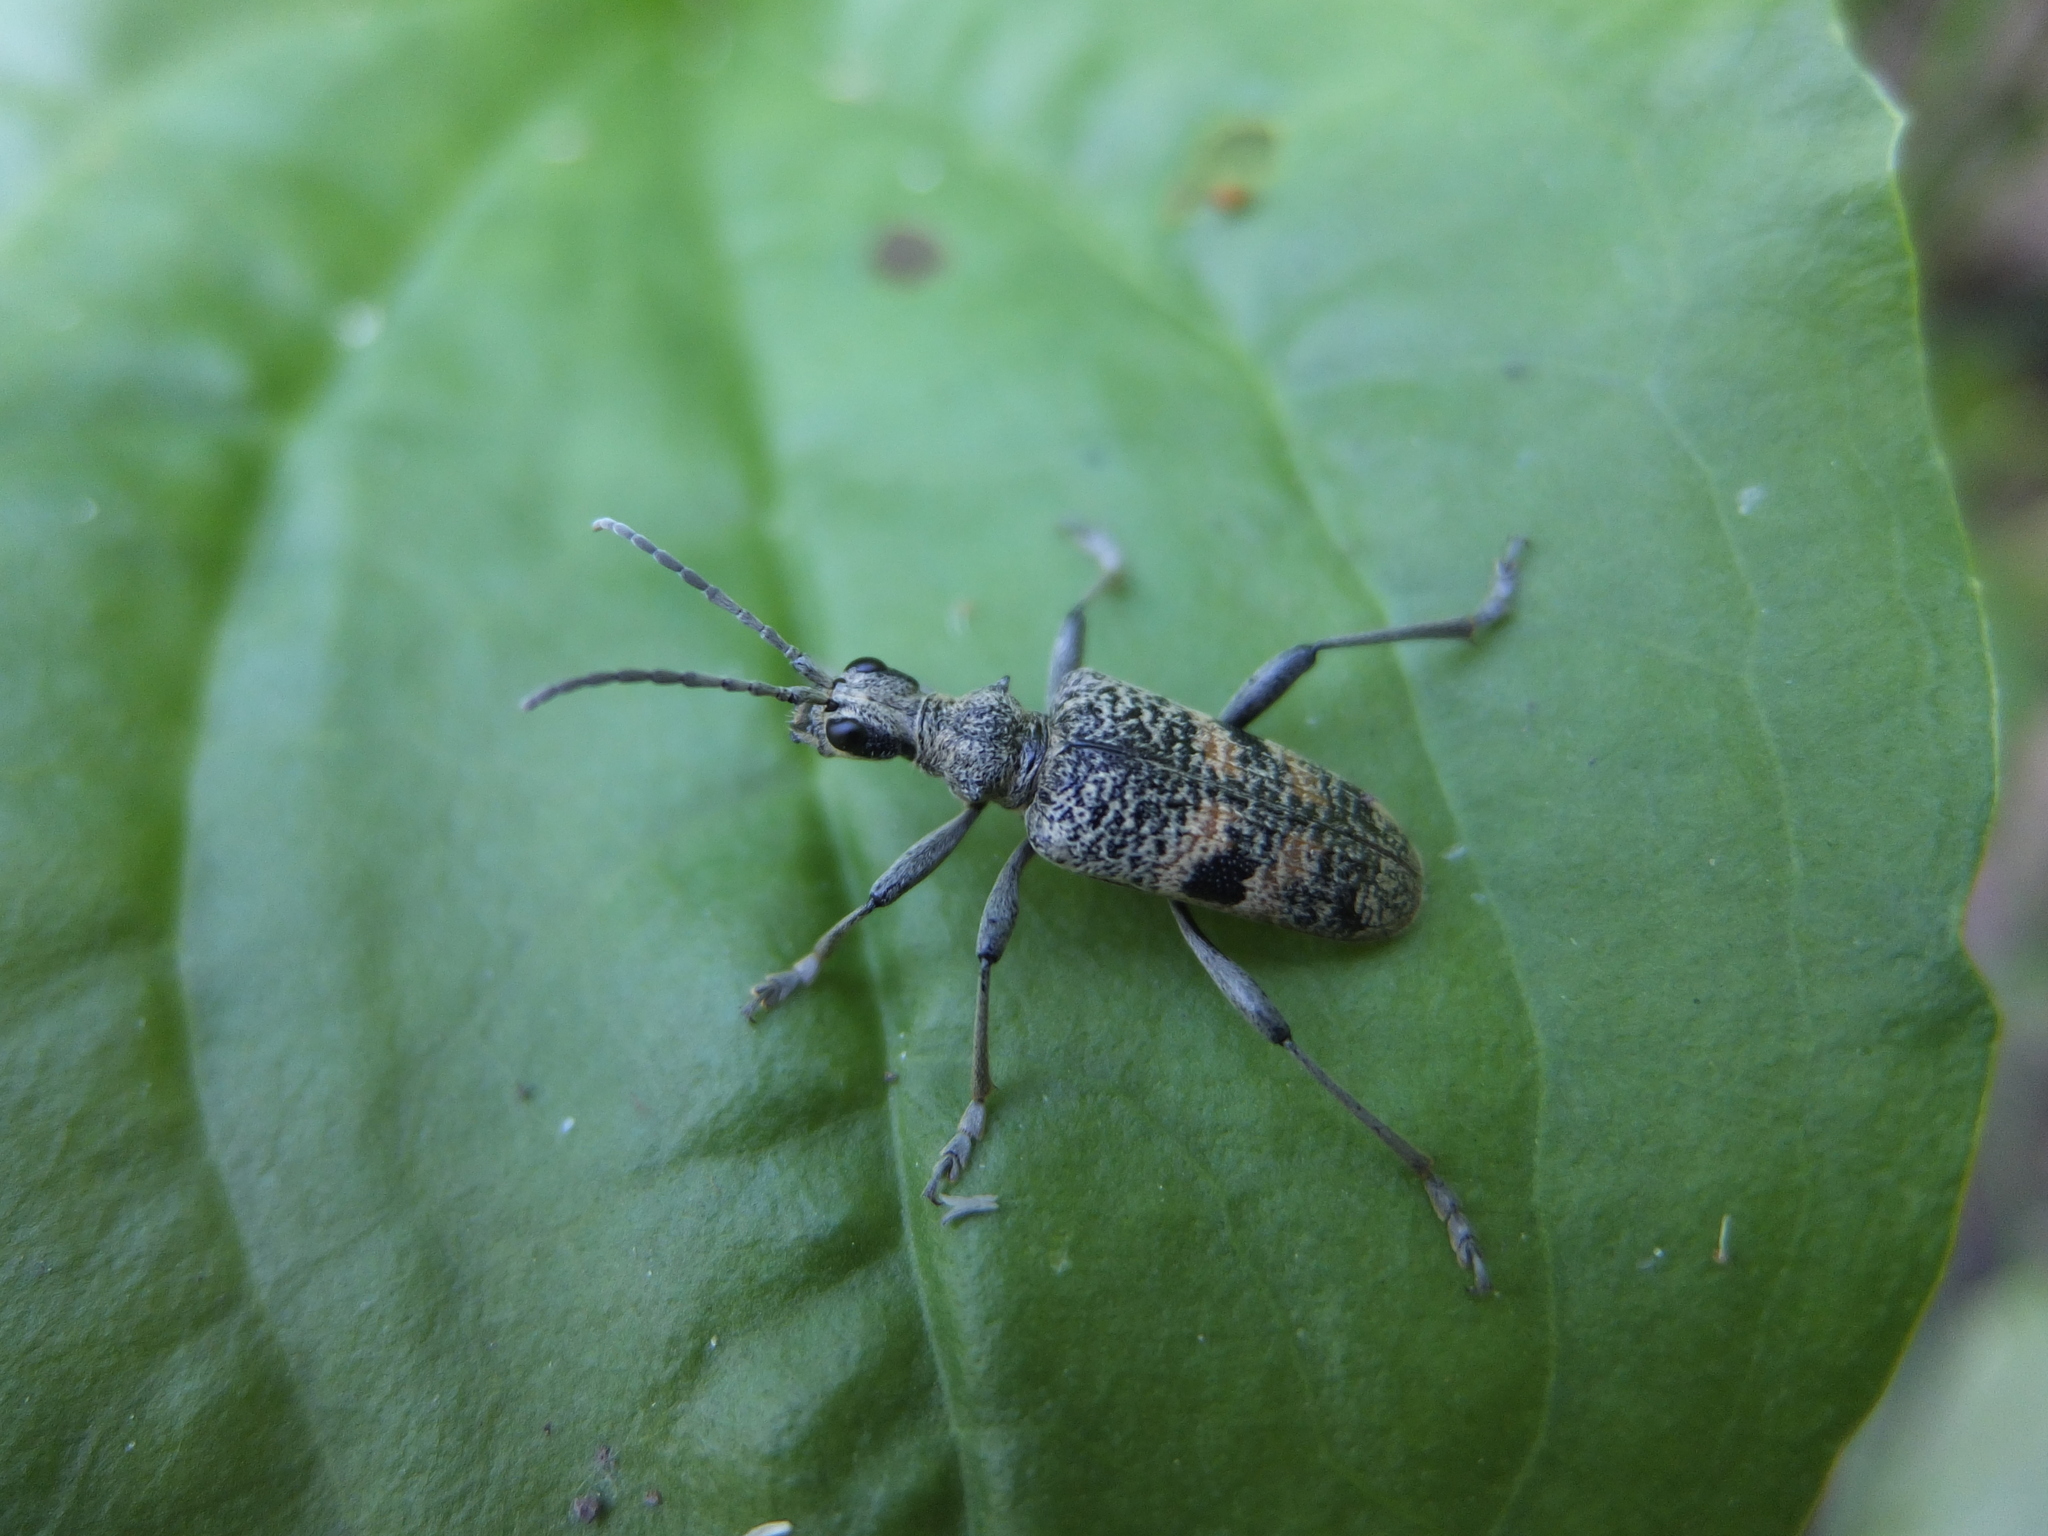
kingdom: Animalia
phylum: Arthropoda
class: Insecta
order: Coleoptera
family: Cerambycidae
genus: Rhagium
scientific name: Rhagium mordax
